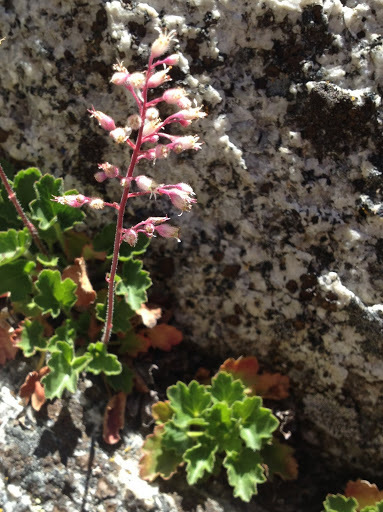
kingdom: Plantae
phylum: Tracheophyta
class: Magnoliopsida
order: Saxifragales
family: Saxifragaceae
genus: Heuchera
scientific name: Heuchera rubescens
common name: Jack-o'the-rocks
